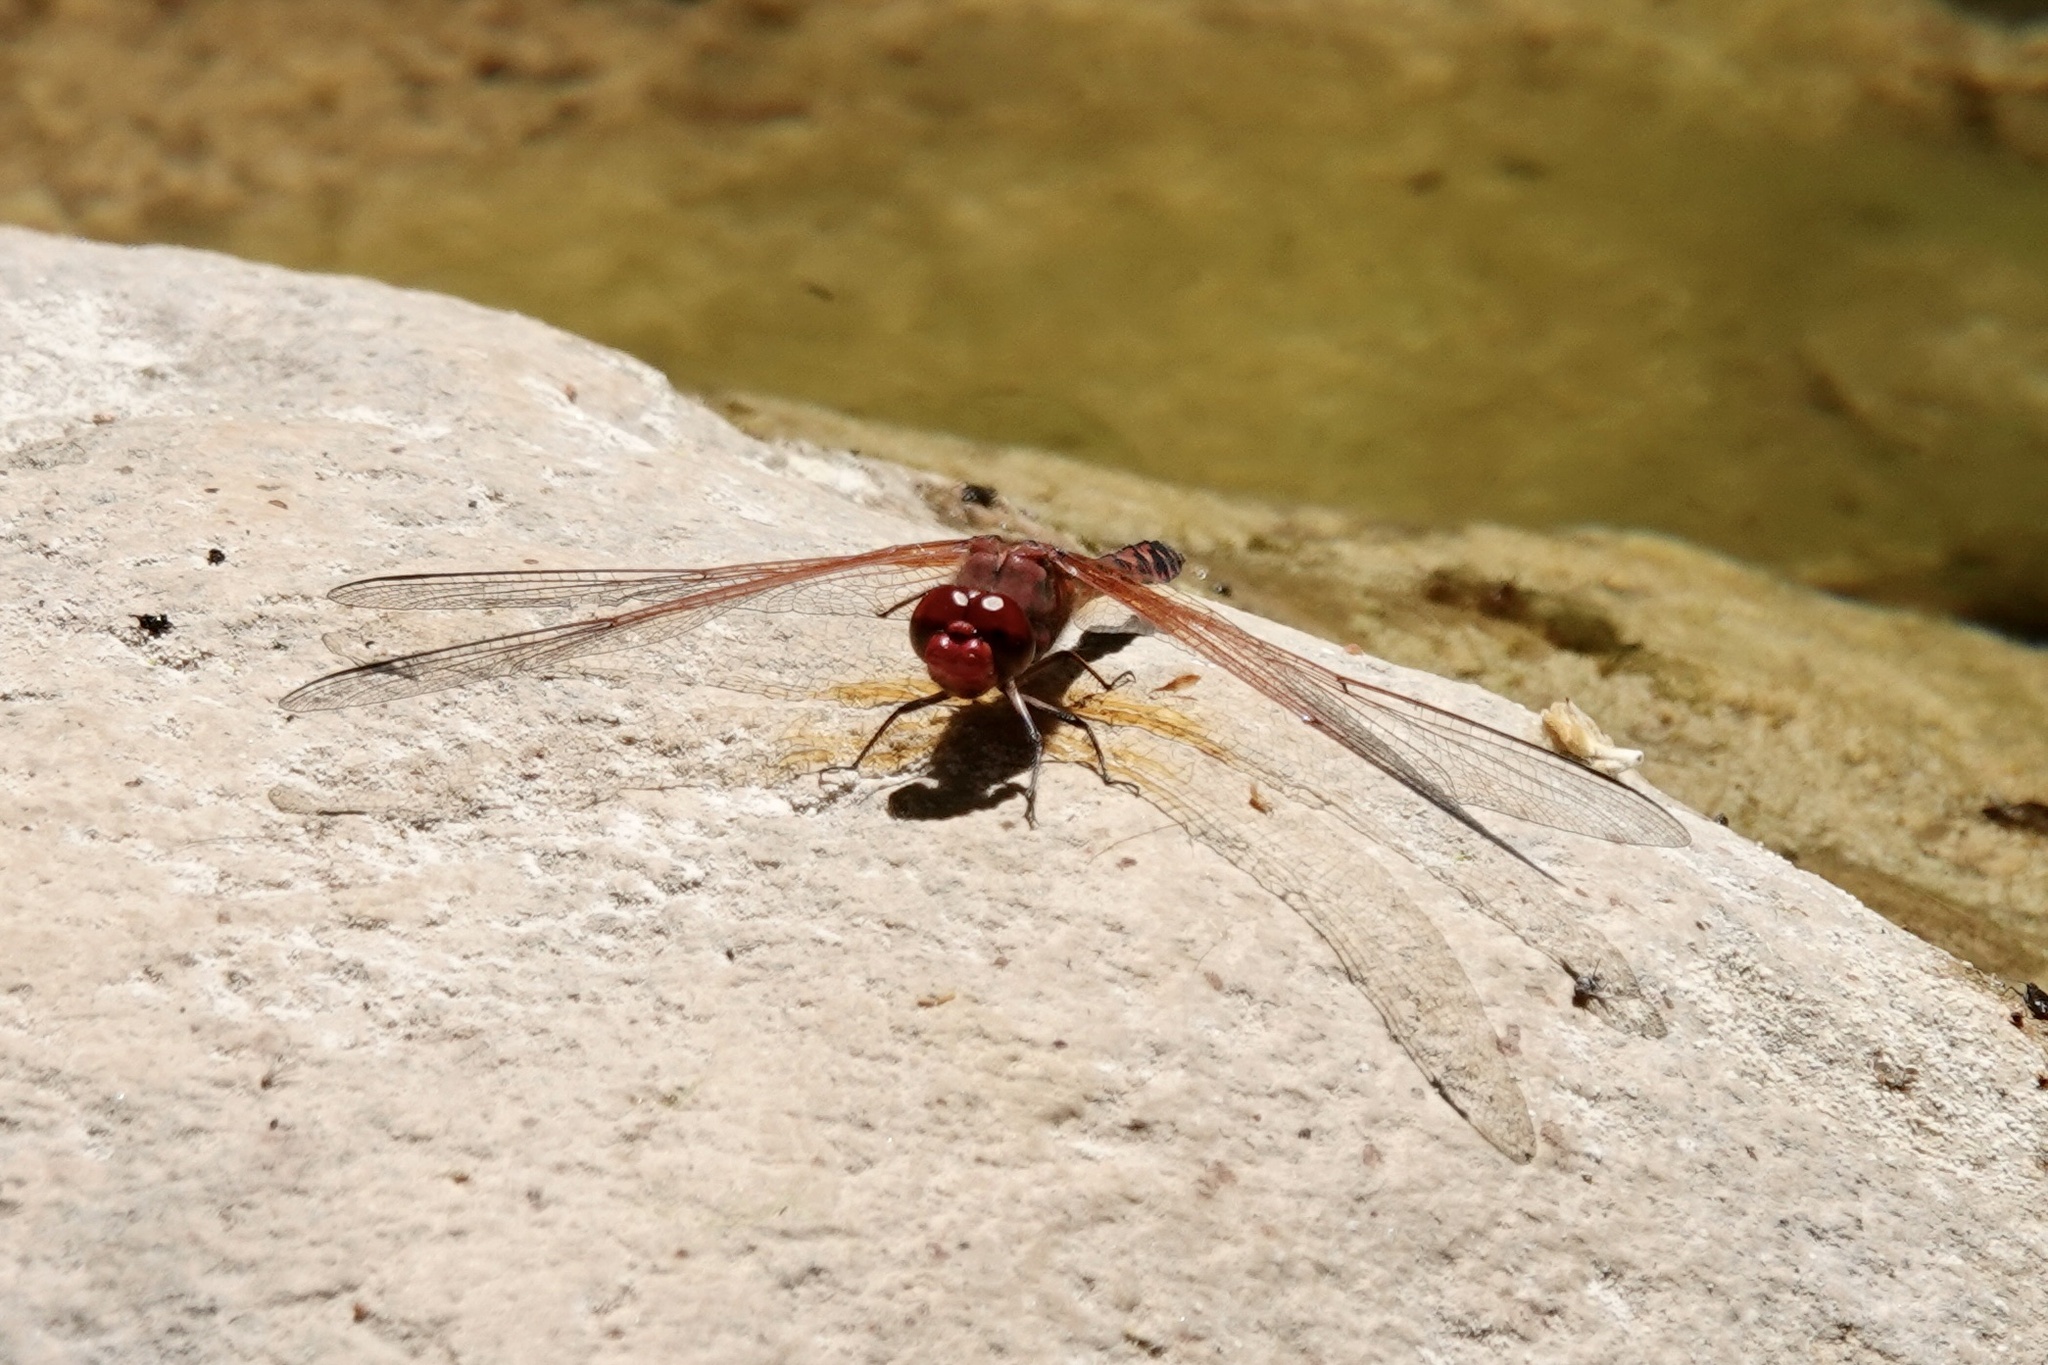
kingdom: Animalia
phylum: Arthropoda
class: Insecta
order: Odonata
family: Libellulidae
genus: Paltothemis
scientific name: Paltothemis lineatipes
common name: Red rock skimmer
